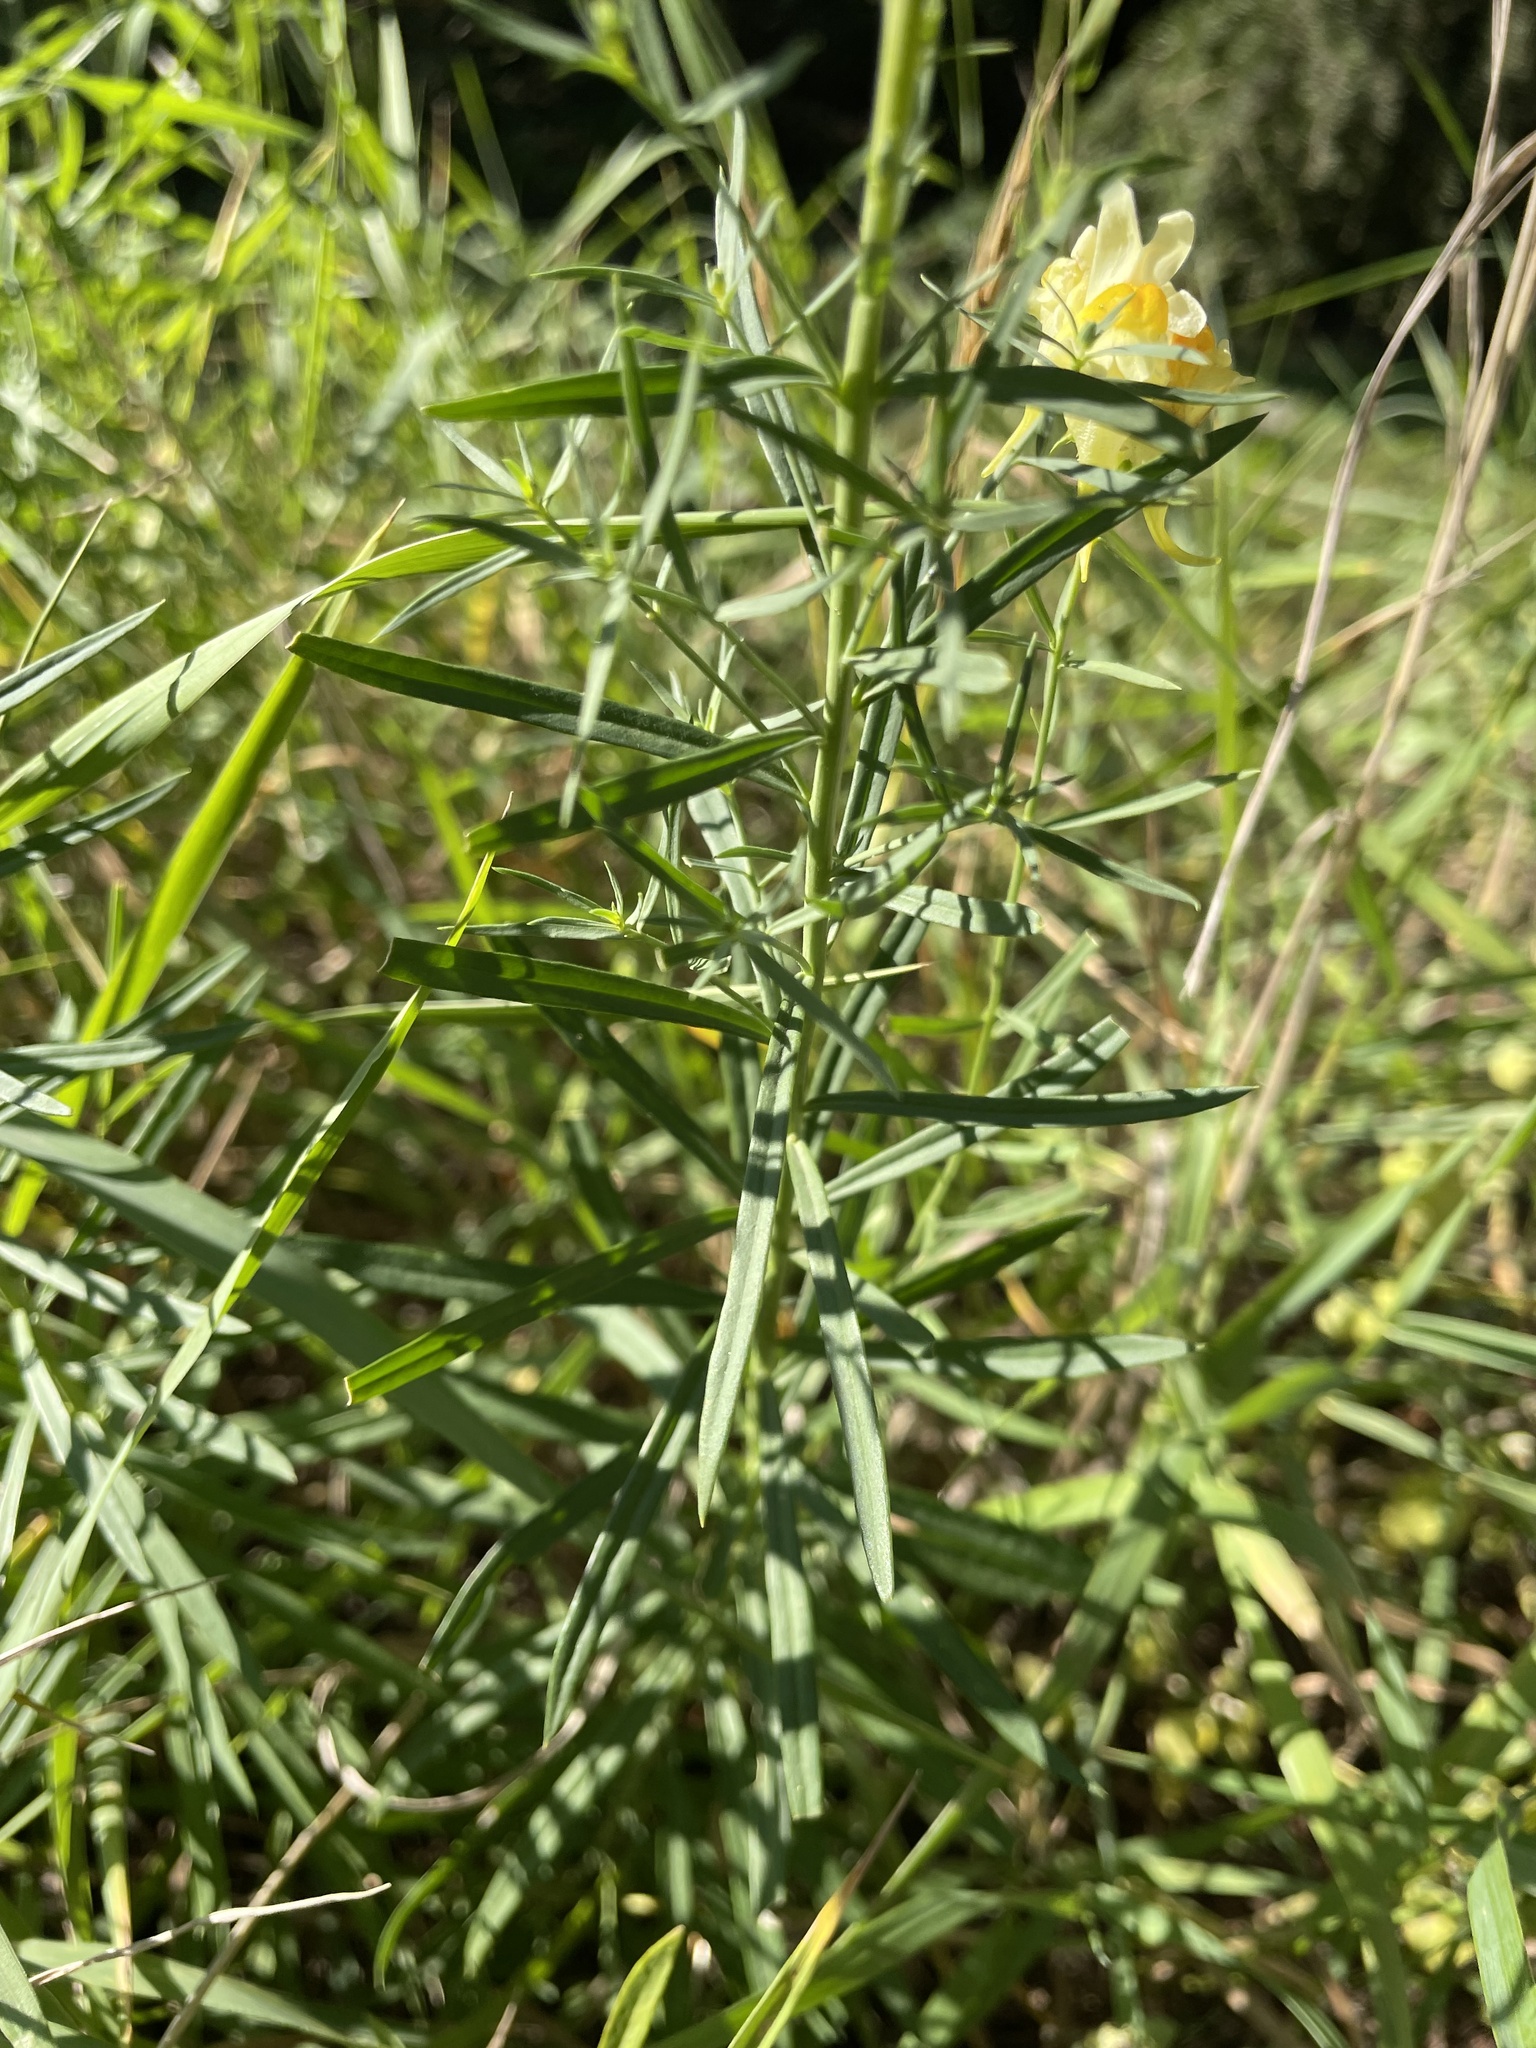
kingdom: Plantae
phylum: Tracheophyta
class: Magnoliopsida
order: Lamiales
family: Plantaginaceae
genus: Linaria
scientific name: Linaria vulgaris
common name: Butter and eggs
